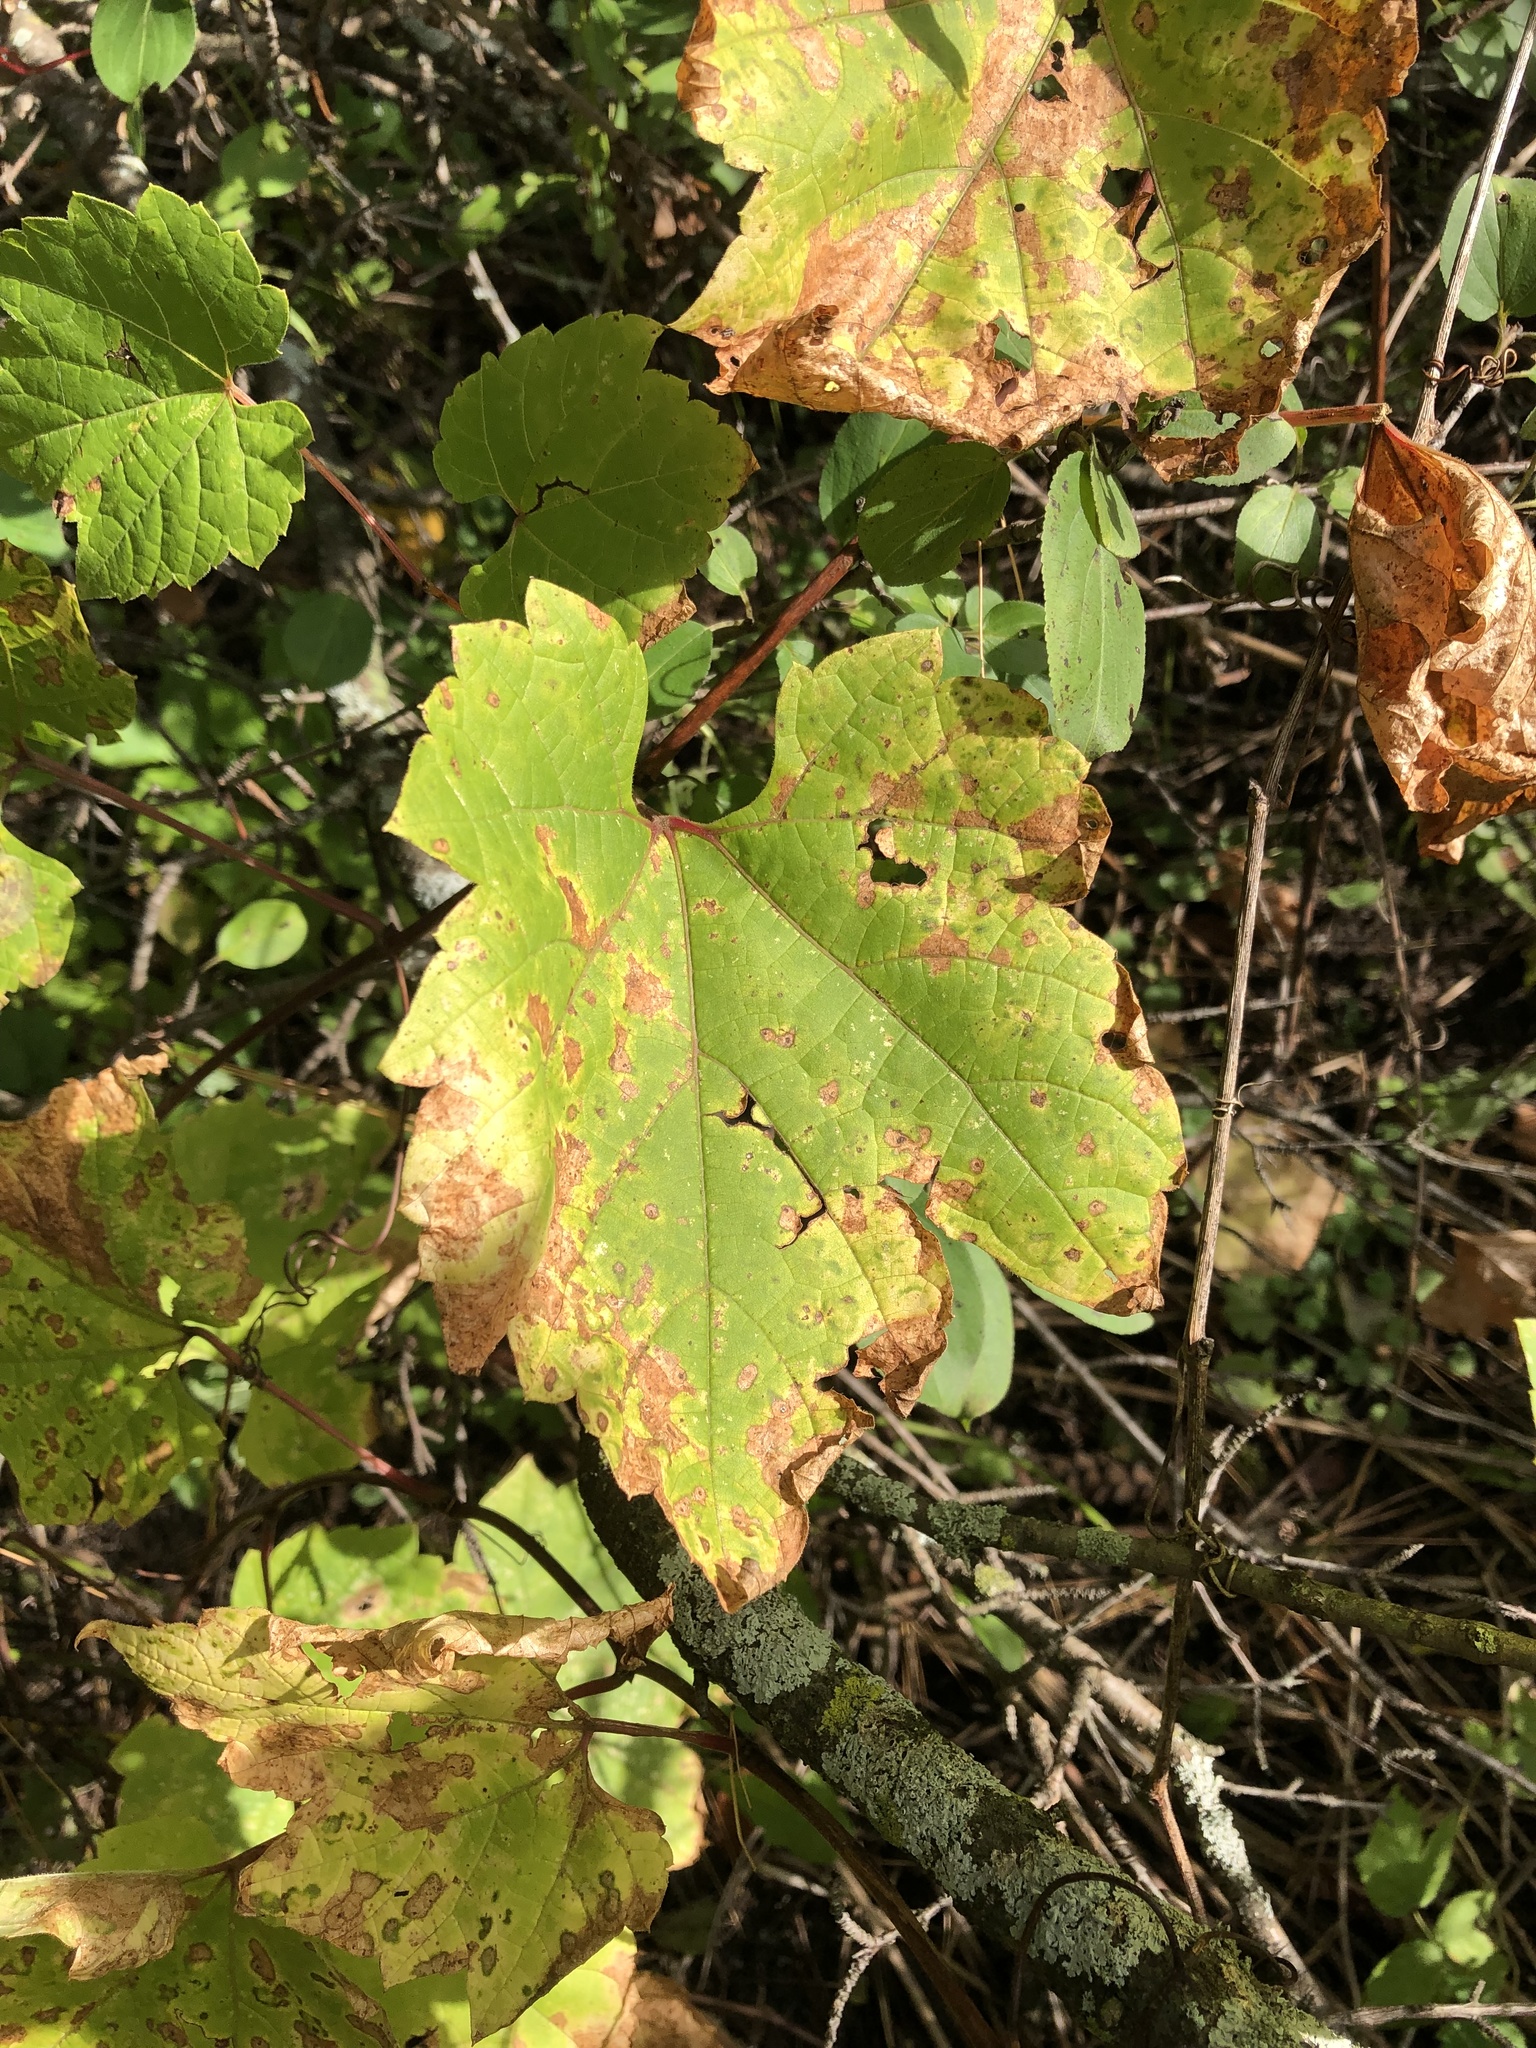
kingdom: Plantae
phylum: Tracheophyta
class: Magnoliopsida
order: Vitales
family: Vitaceae
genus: Vitis
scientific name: Vitis riparia
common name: Frost grape
